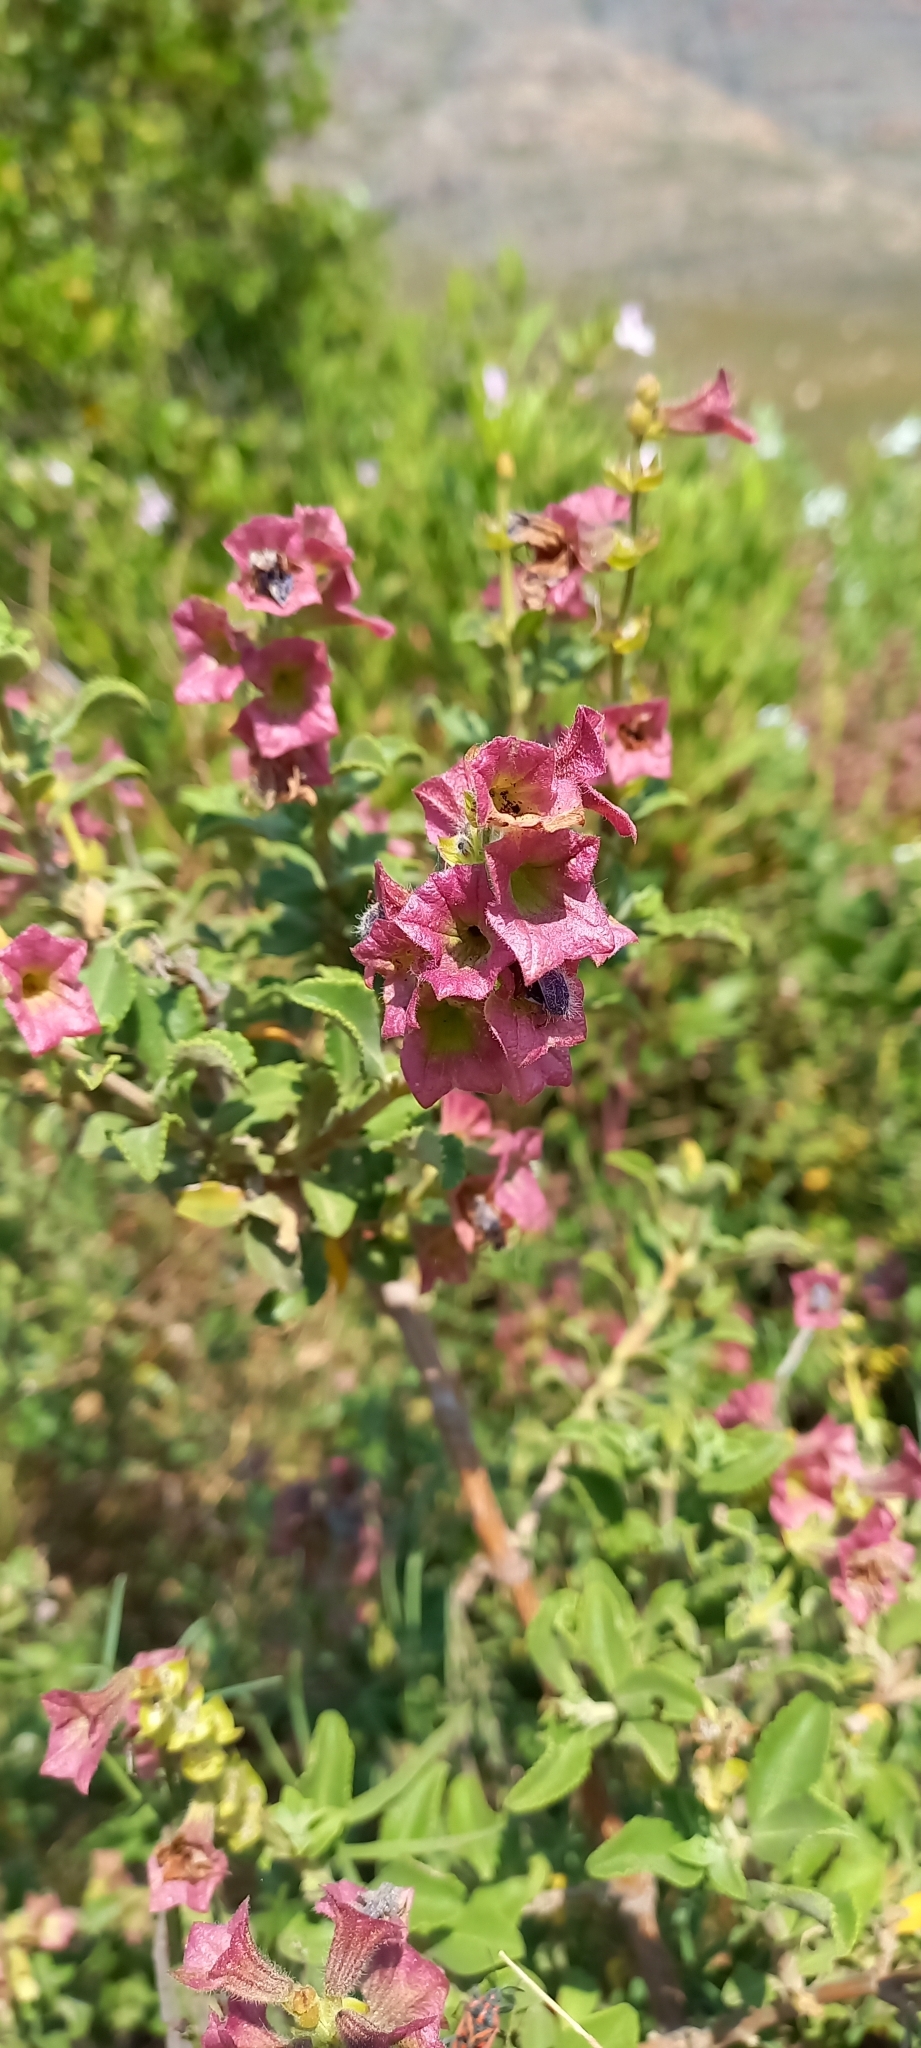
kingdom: Plantae
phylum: Tracheophyta
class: Magnoliopsida
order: Lamiales
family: Lamiaceae
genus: Salvia
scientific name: Salvia africana
